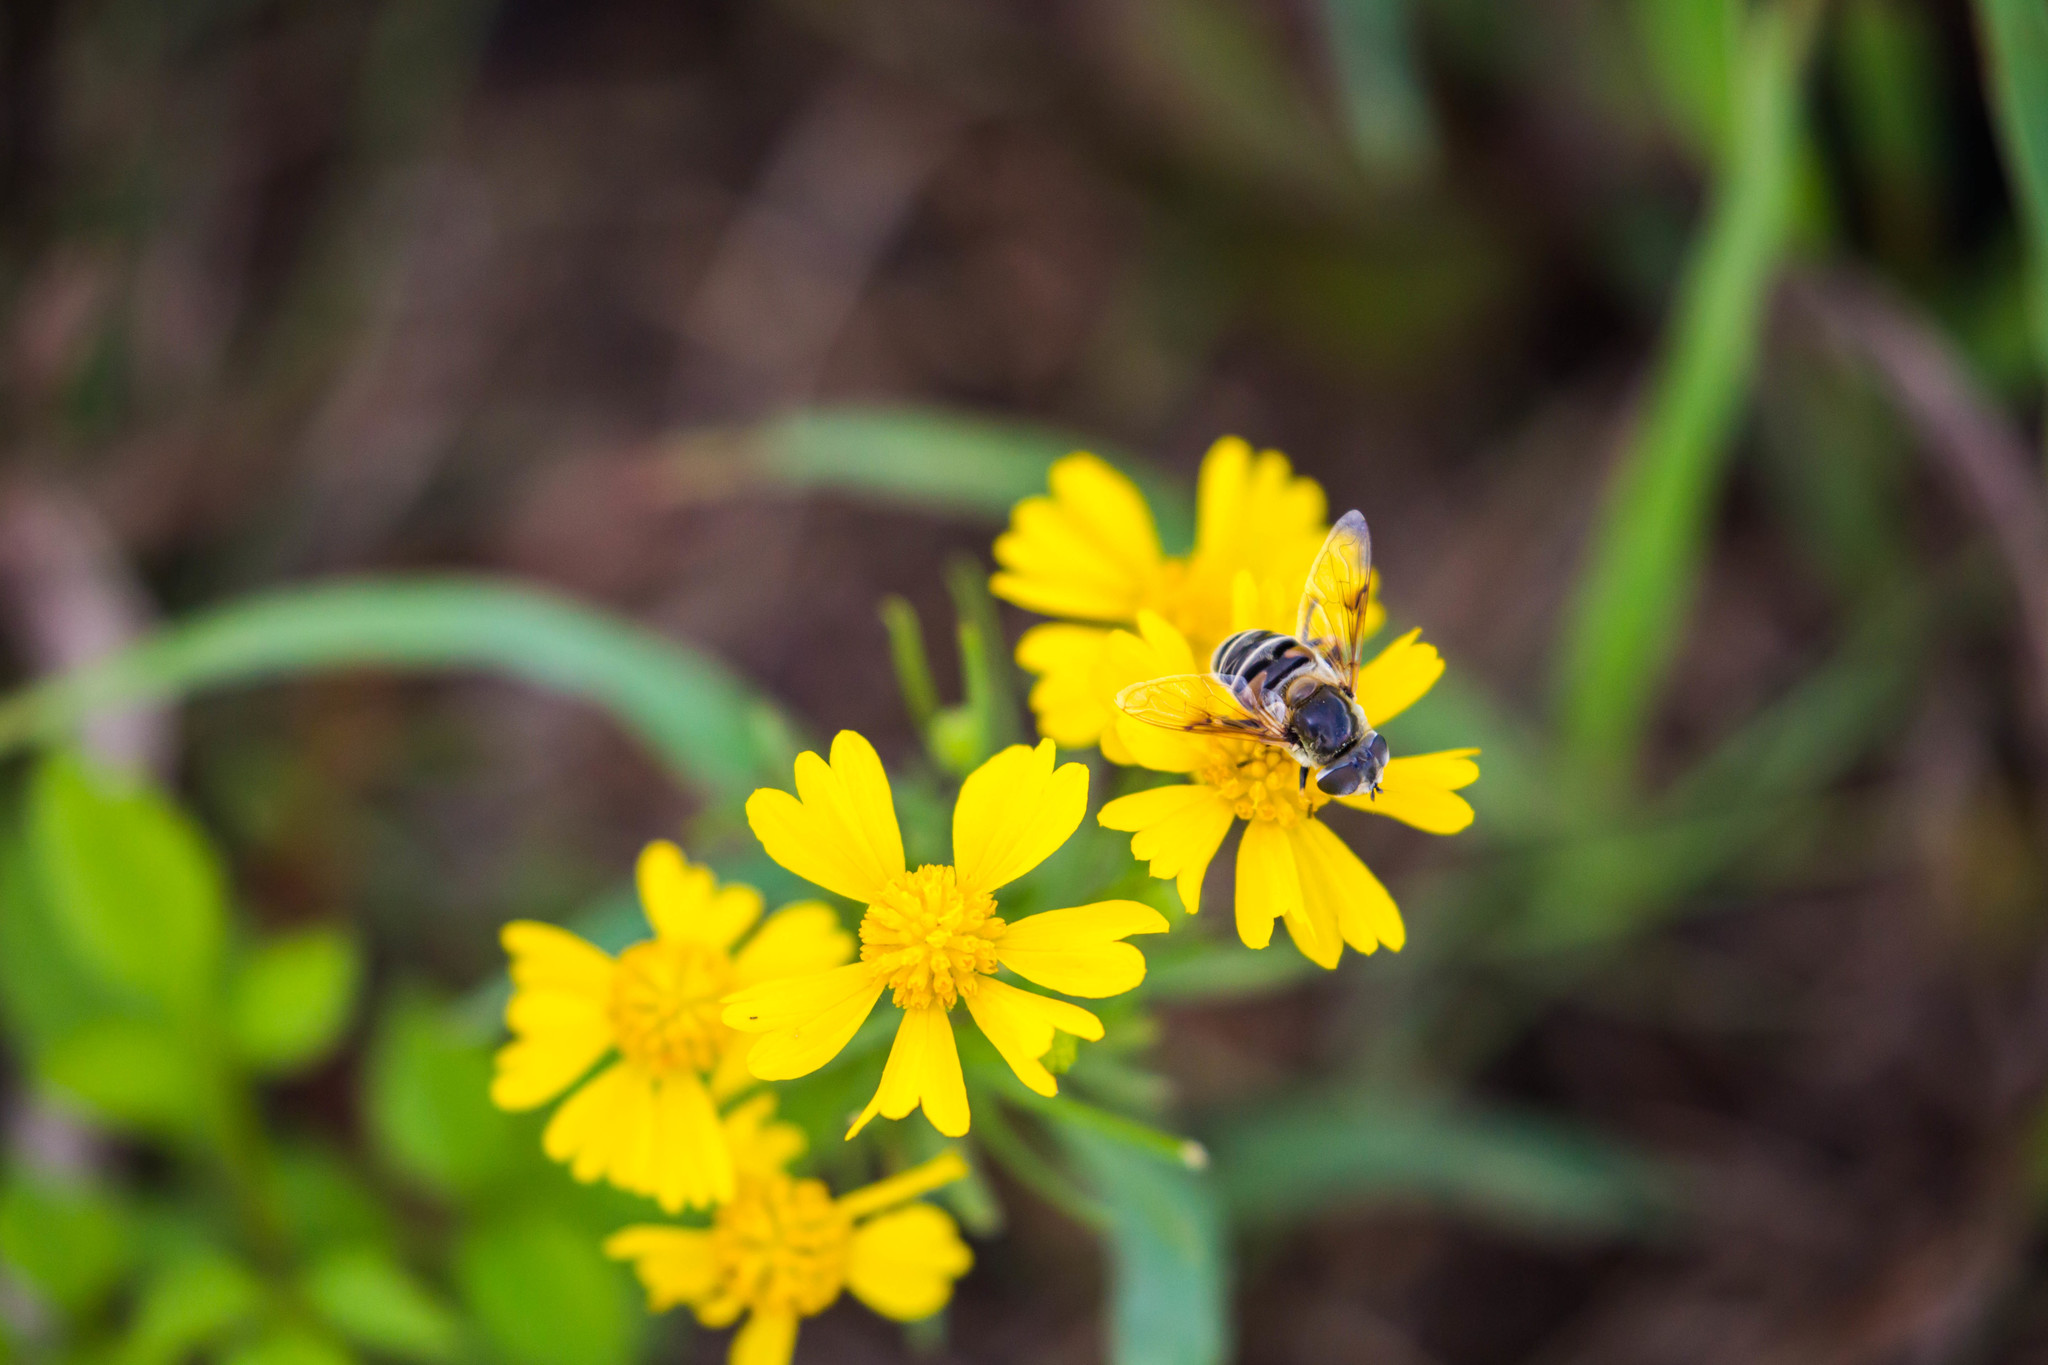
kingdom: Animalia
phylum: Arthropoda
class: Insecta
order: Diptera
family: Syrphidae
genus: Eristalis
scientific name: Eristalis stipator
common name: Yellow-shouldered drone fly
